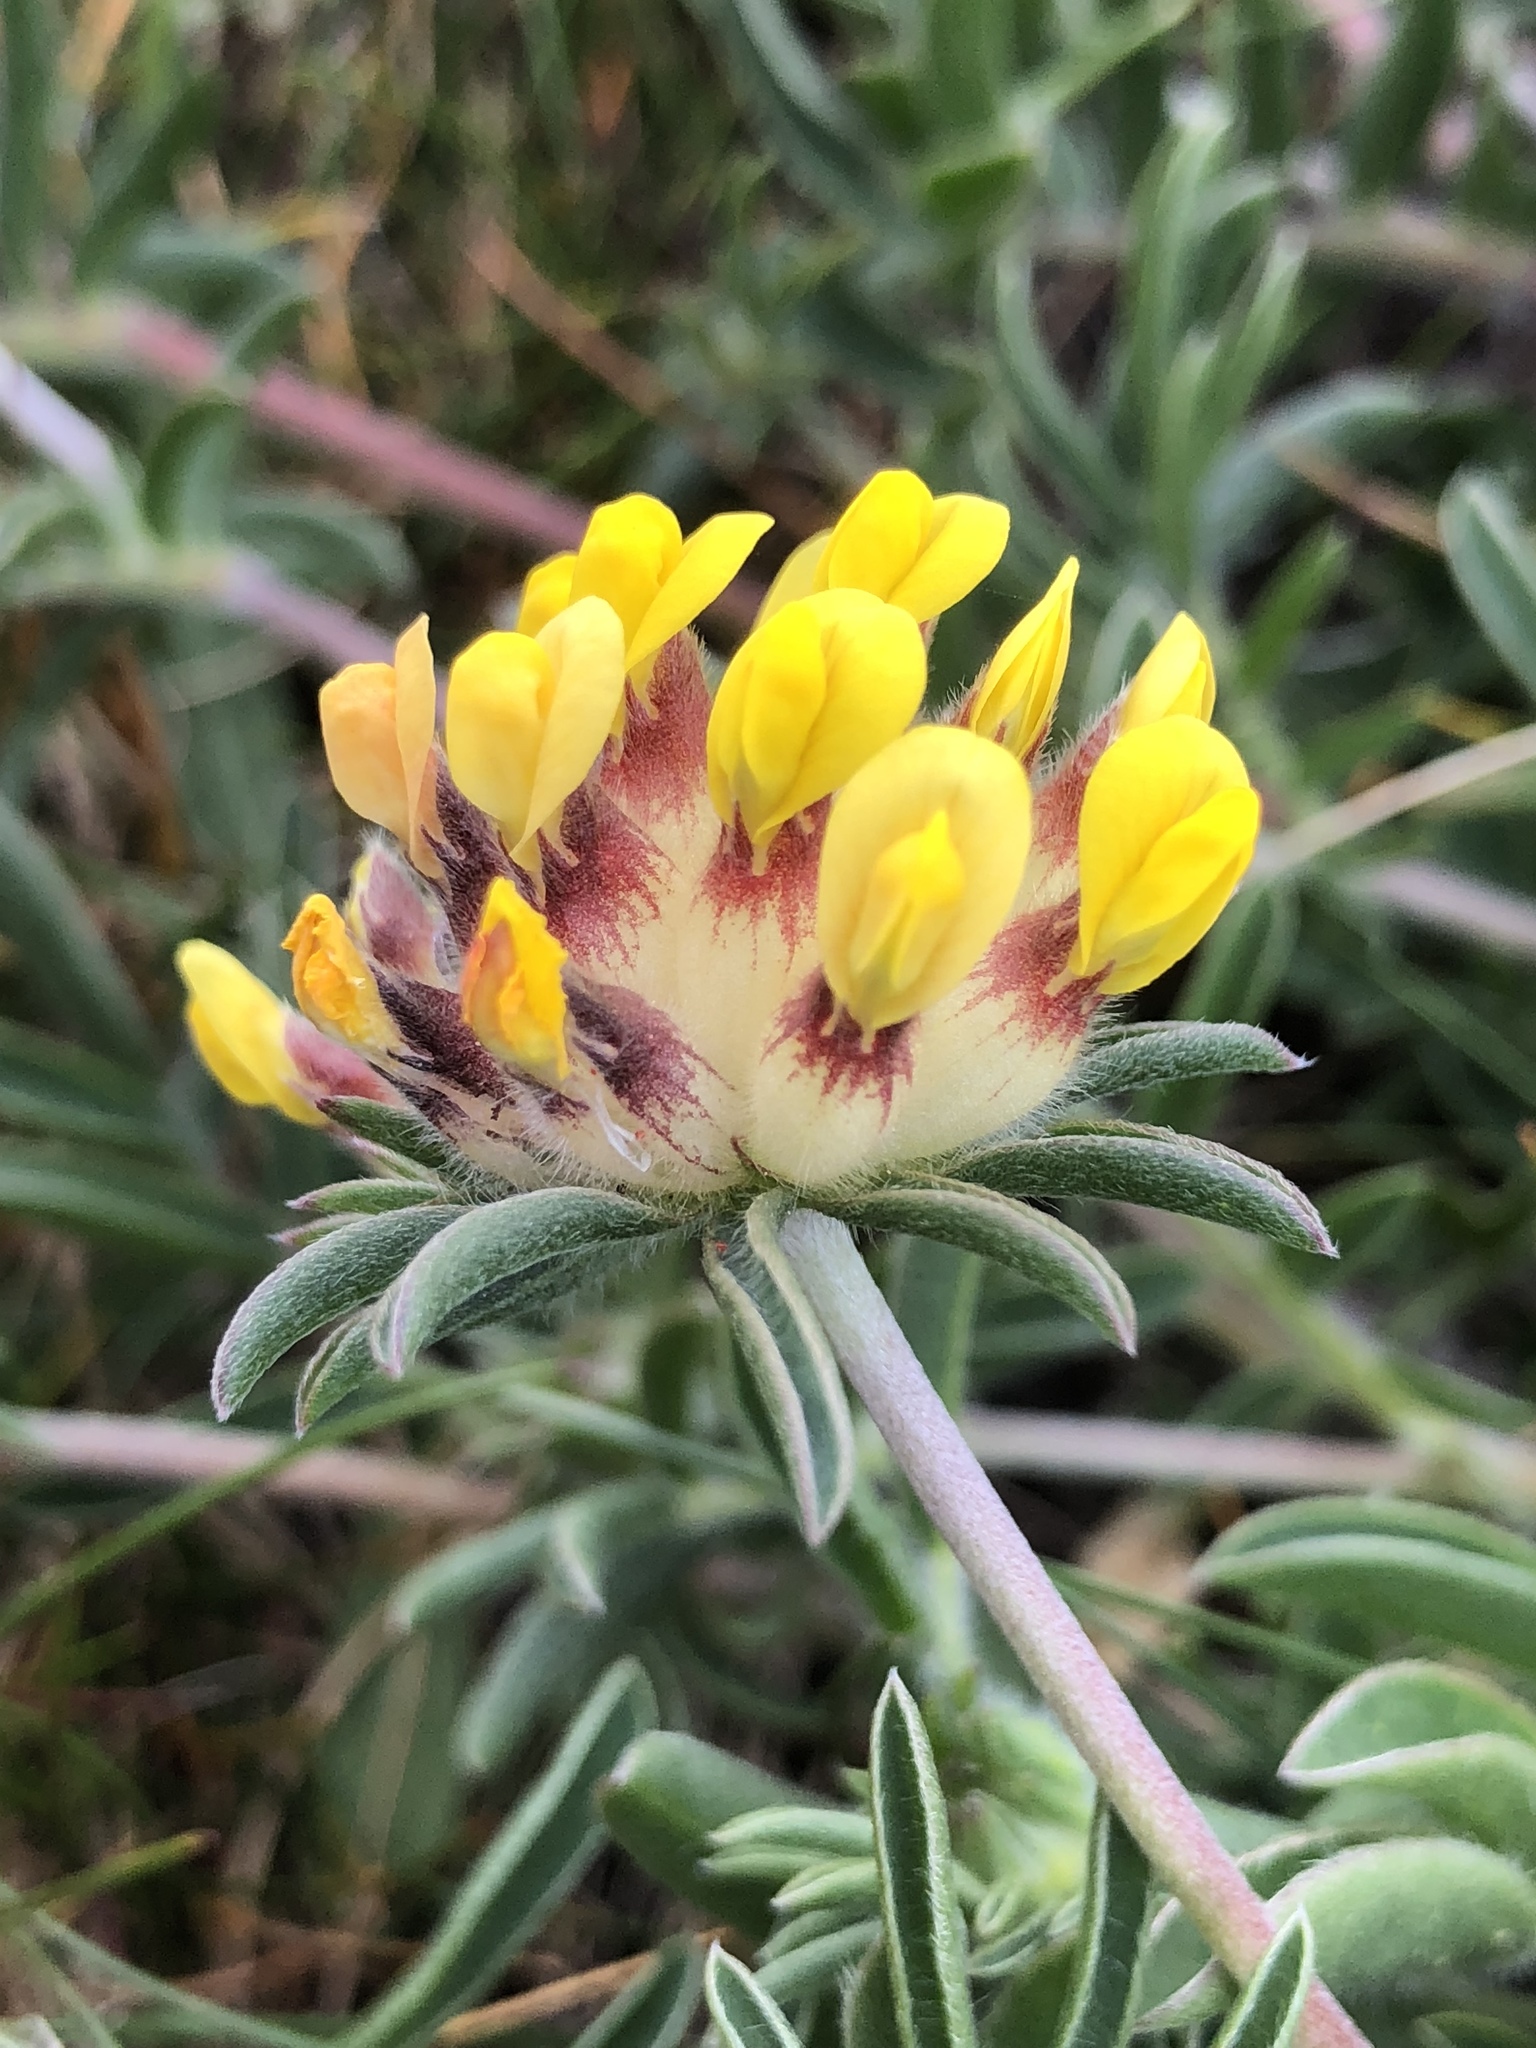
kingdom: Plantae
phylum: Tracheophyta
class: Magnoliopsida
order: Fabales
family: Fabaceae
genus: Anthyllis
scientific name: Anthyllis vulneraria
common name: Kidney vetch
